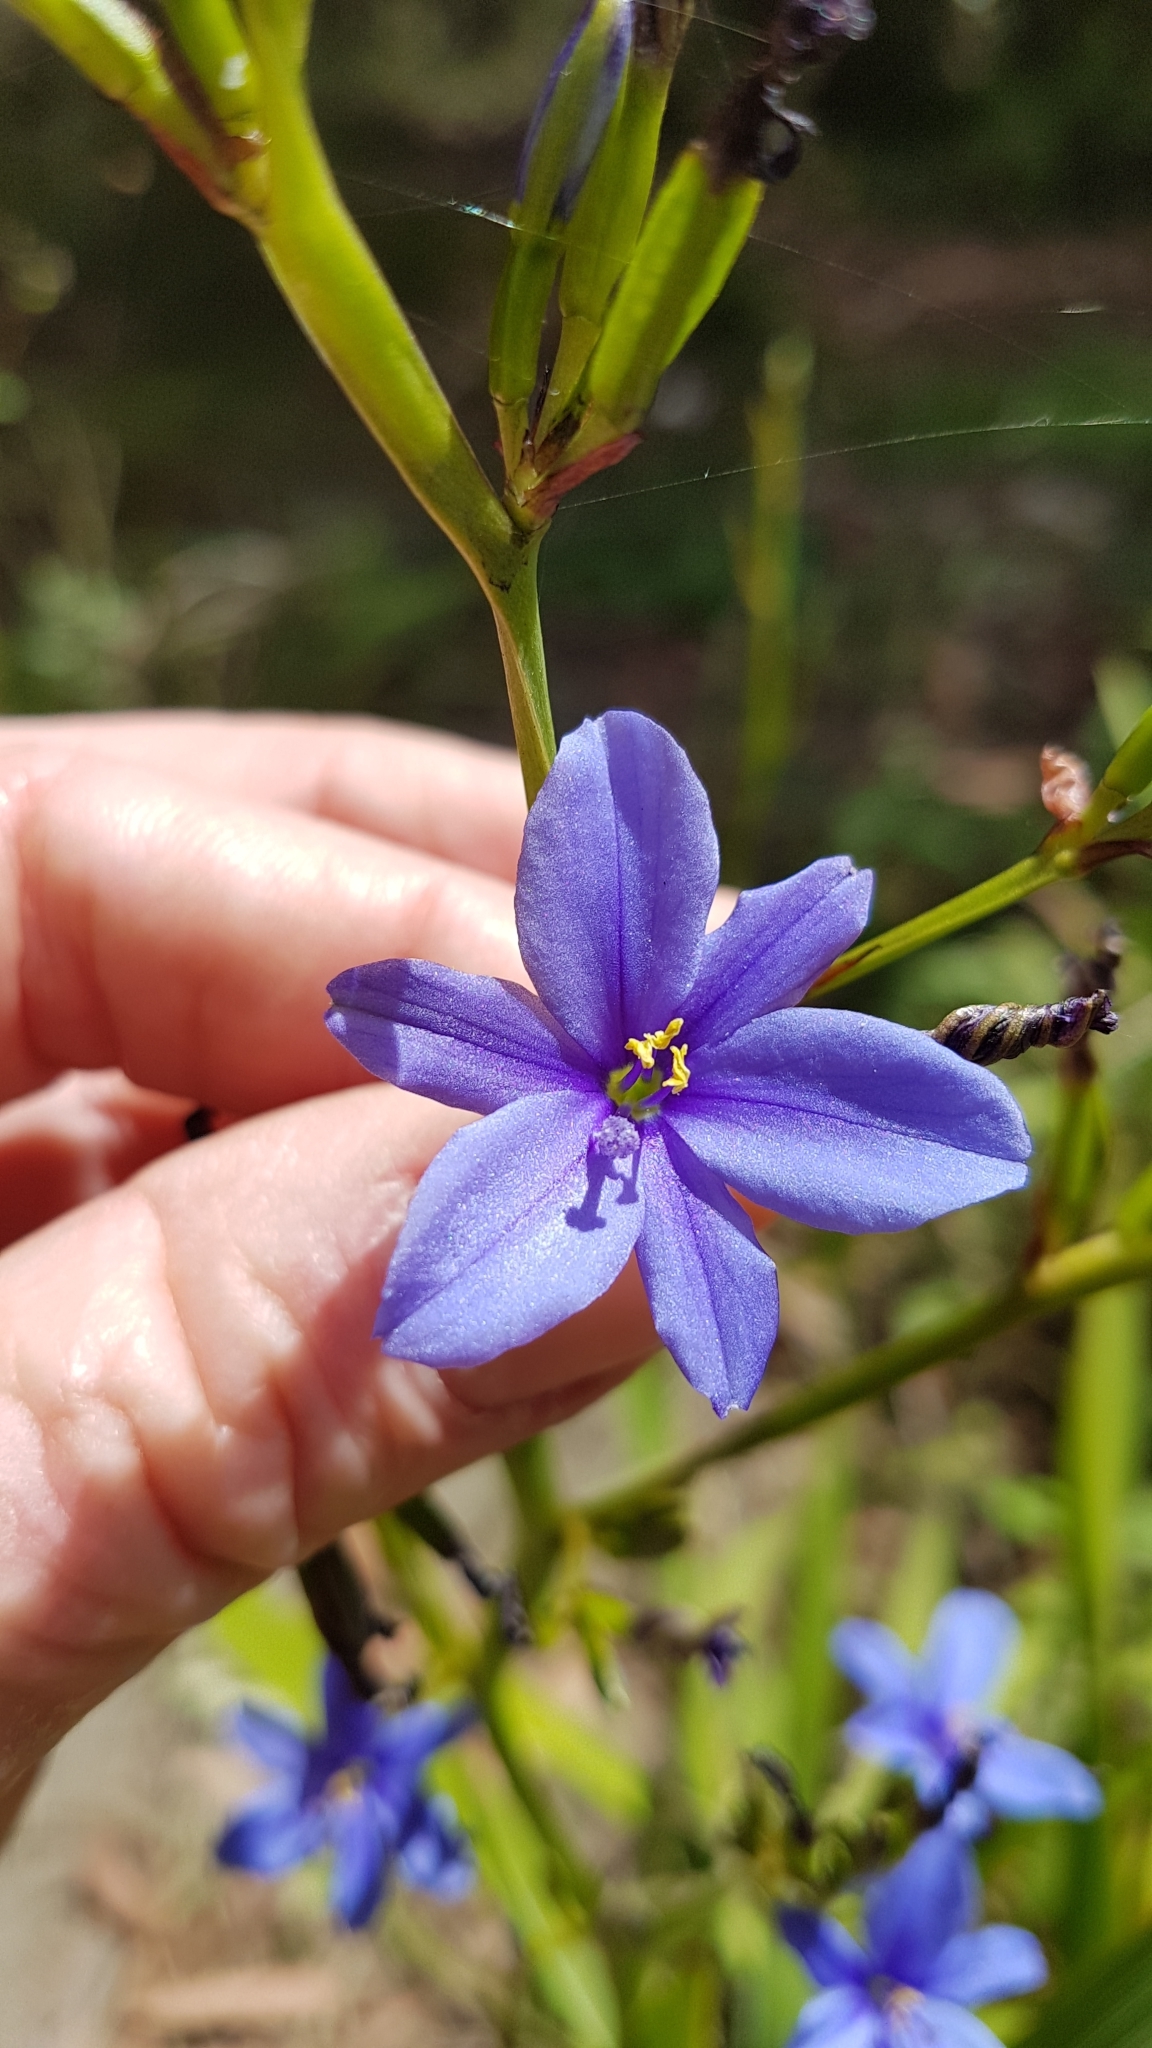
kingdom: Plantae
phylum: Tracheophyta
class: Liliopsida
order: Asparagales
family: Iridaceae
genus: Aristea
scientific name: Aristea ecklonii
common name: Blue corn-lily
